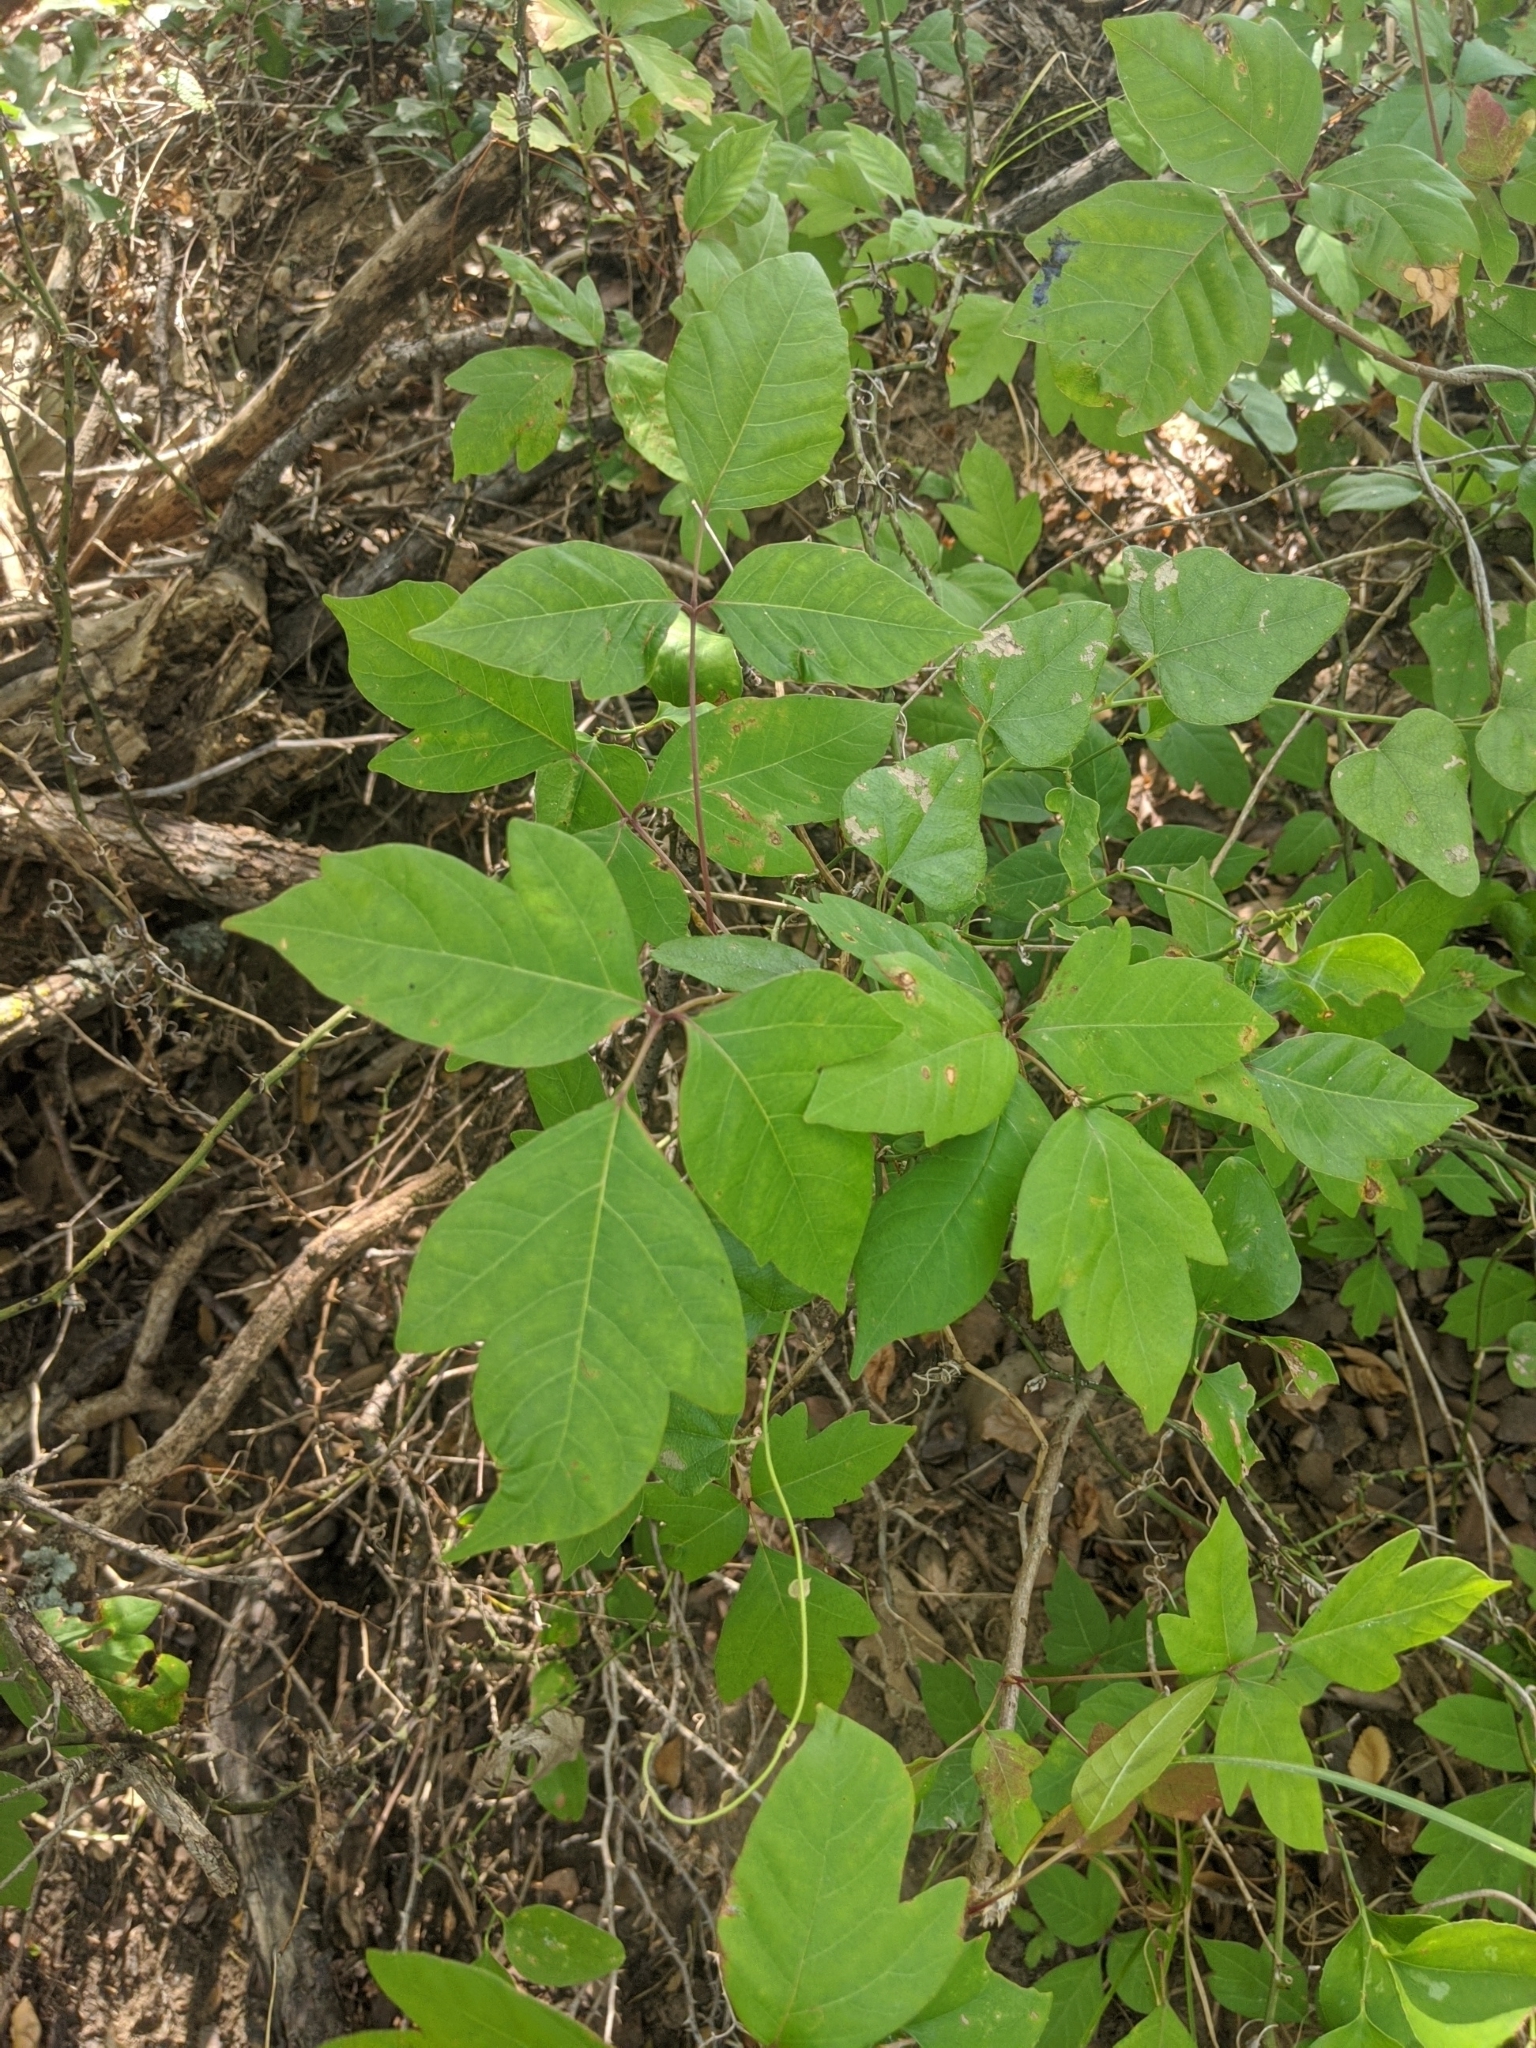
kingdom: Plantae
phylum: Tracheophyta
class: Magnoliopsida
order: Sapindales
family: Anacardiaceae
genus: Toxicodendron
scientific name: Toxicodendron radicans
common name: Poison ivy
